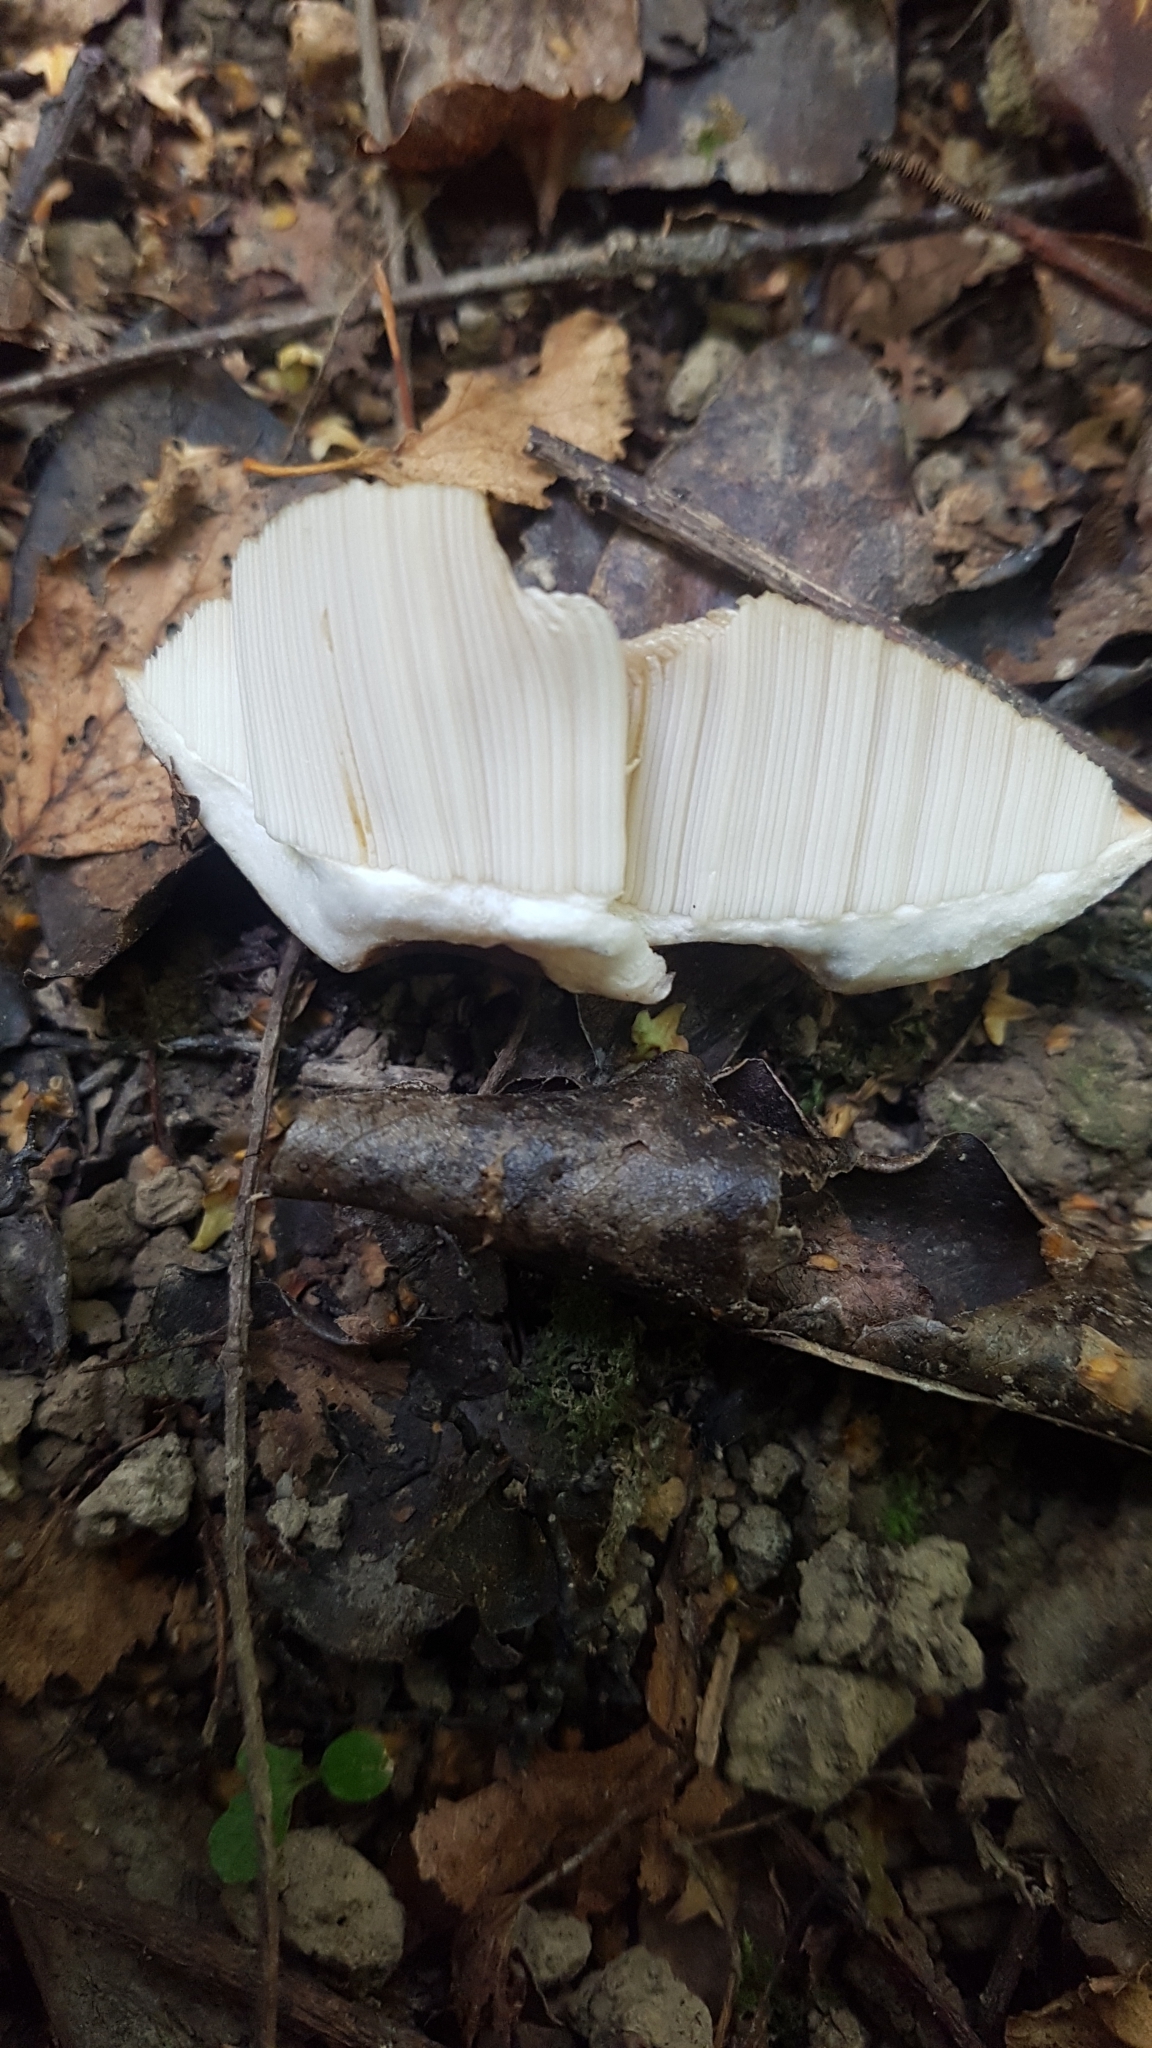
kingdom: Fungi
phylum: Basidiomycota
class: Agaricomycetes
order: Boletales
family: Boletaceae
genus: Leccinum
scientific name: Leccinum scabrum
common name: Blushing bolete
